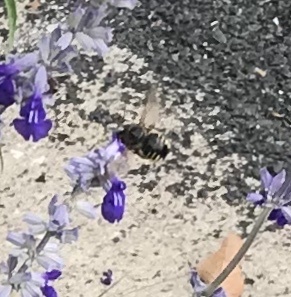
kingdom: Animalia
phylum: Arthropoda
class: Insecta
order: Hymenoptera
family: Apidae
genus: Xylocopa
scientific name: Xylocopa tabaniformis
